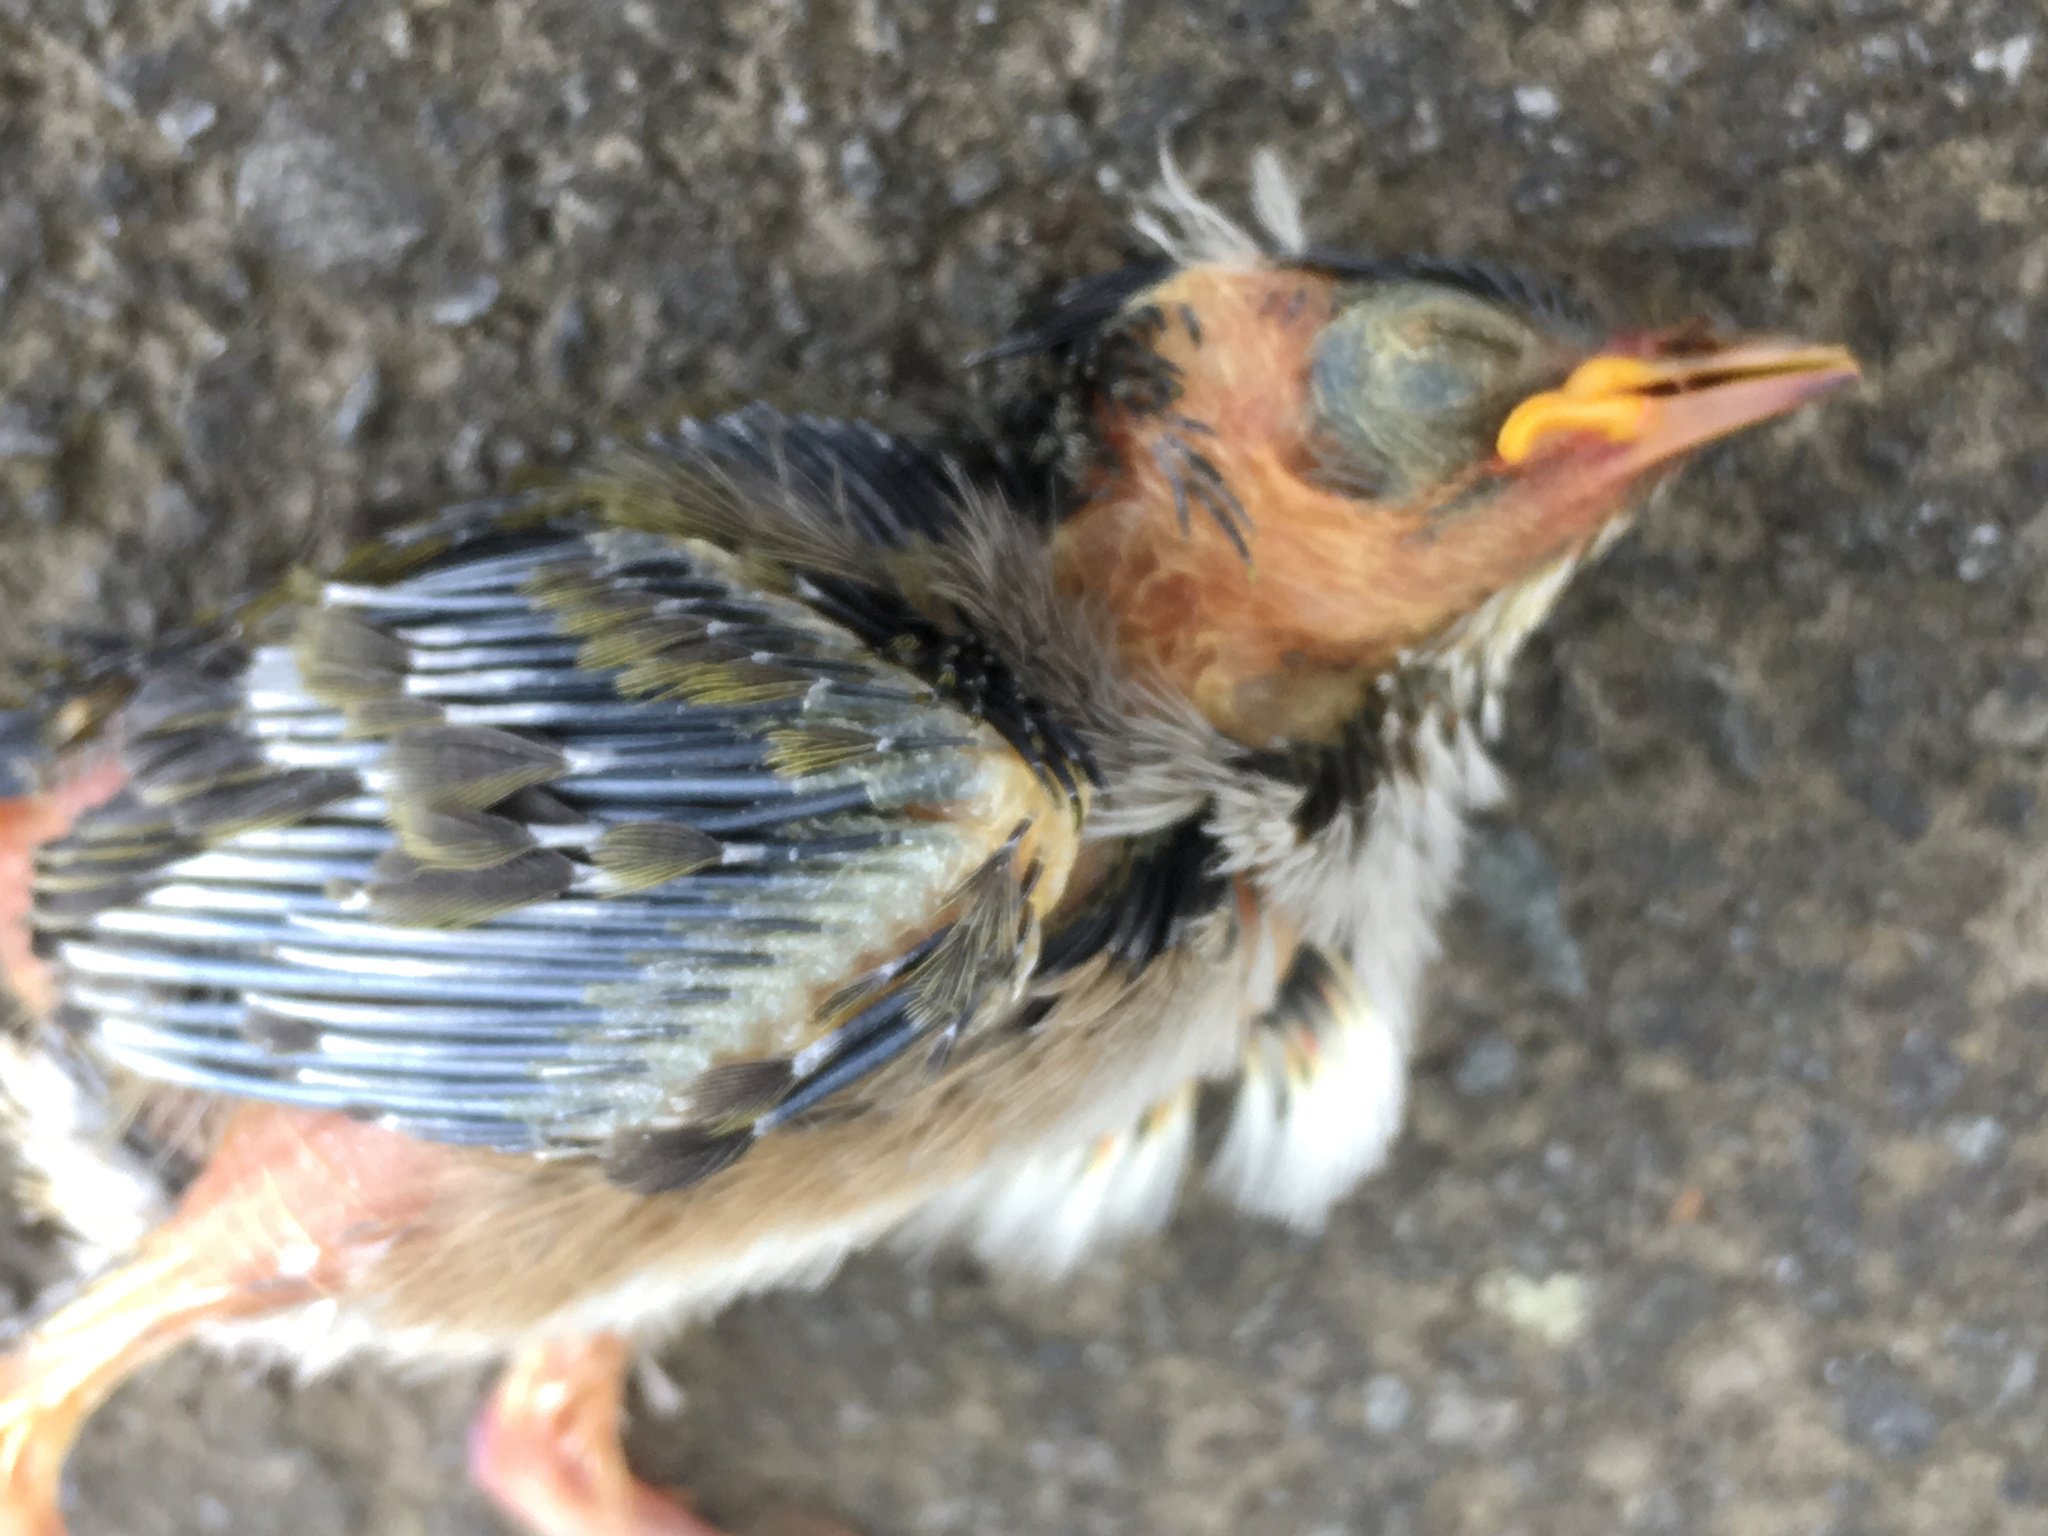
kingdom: Animalia
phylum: Chordata
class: Aves
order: Passeriformes
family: Zosteropidae
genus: Zosterops
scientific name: Zosterops lateralis
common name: Silvereye
